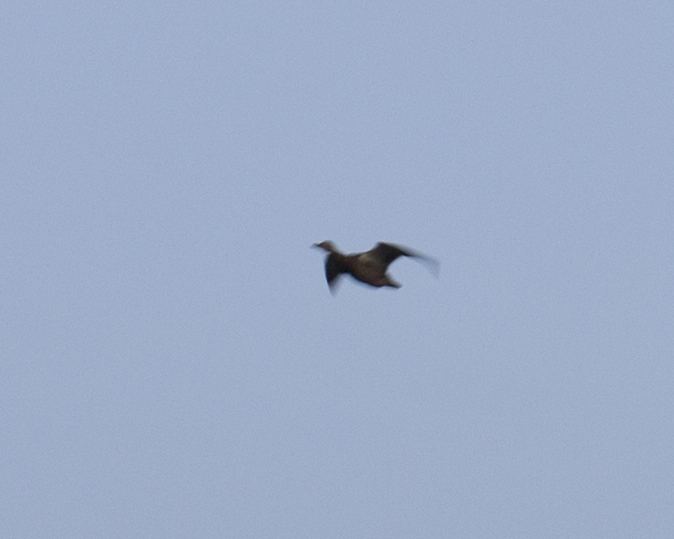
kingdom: Animalia
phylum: Chordata
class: Aves
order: Anseriformes
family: Anatidae
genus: Anas
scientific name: Anas platyrhynchos
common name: Mallard
